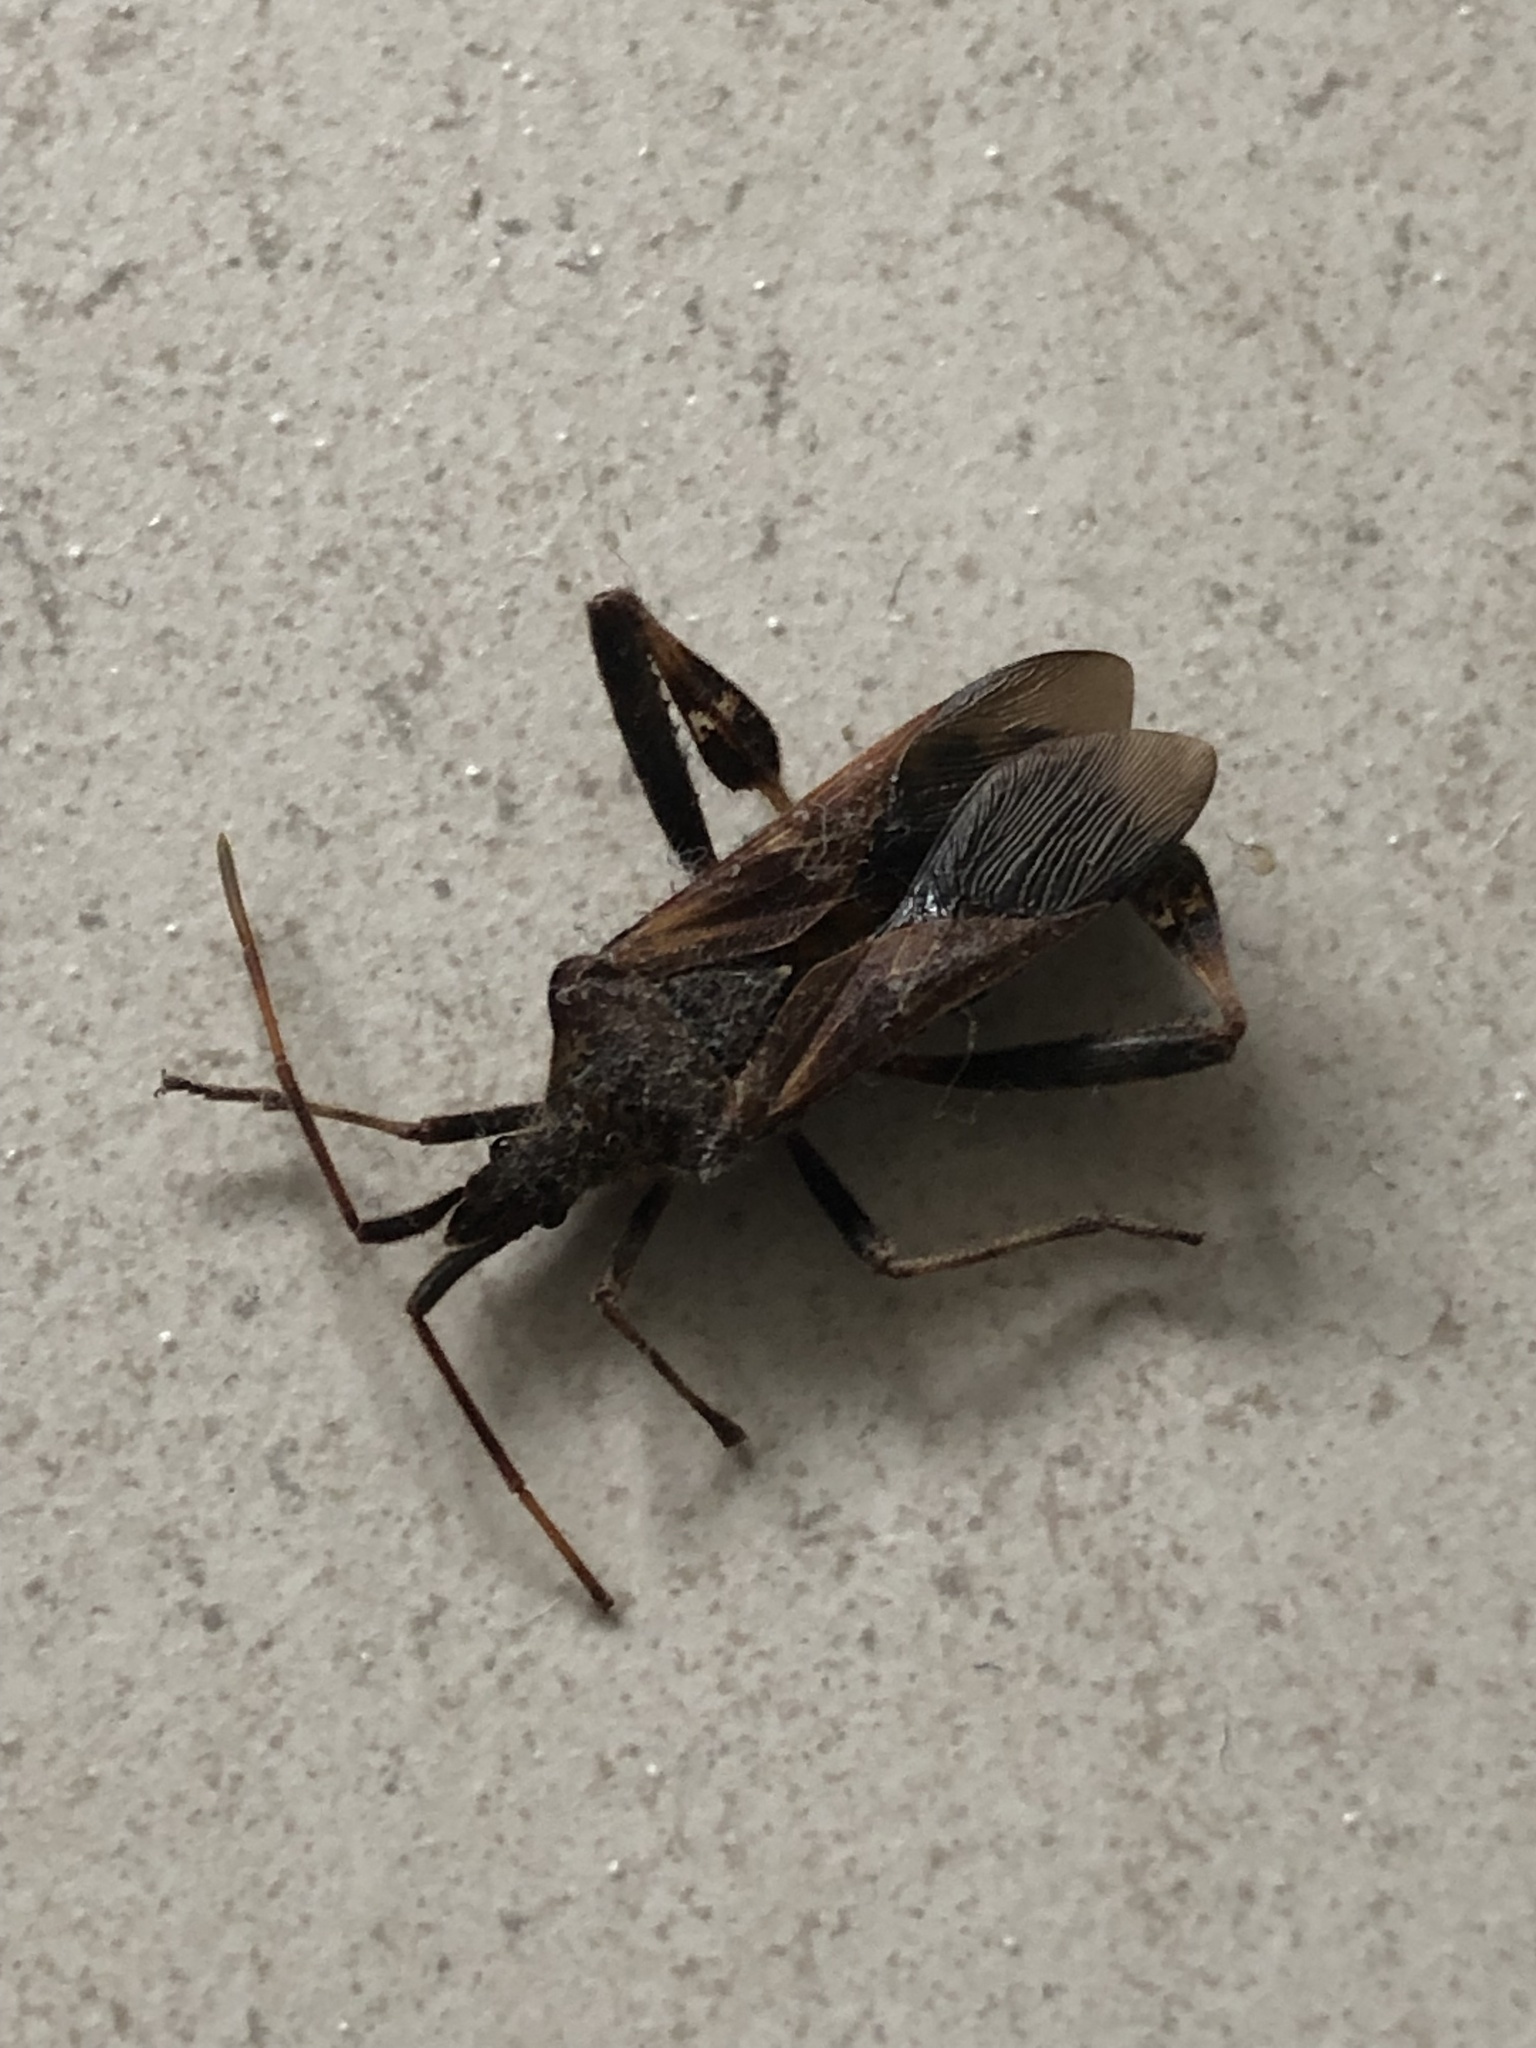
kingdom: Animalia
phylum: Arthropoda
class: Insecta
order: Hemiptera
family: Coreidae
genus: Leptoglossus
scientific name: Leptoglossus occidentalis
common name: Western conifer-seed bug
